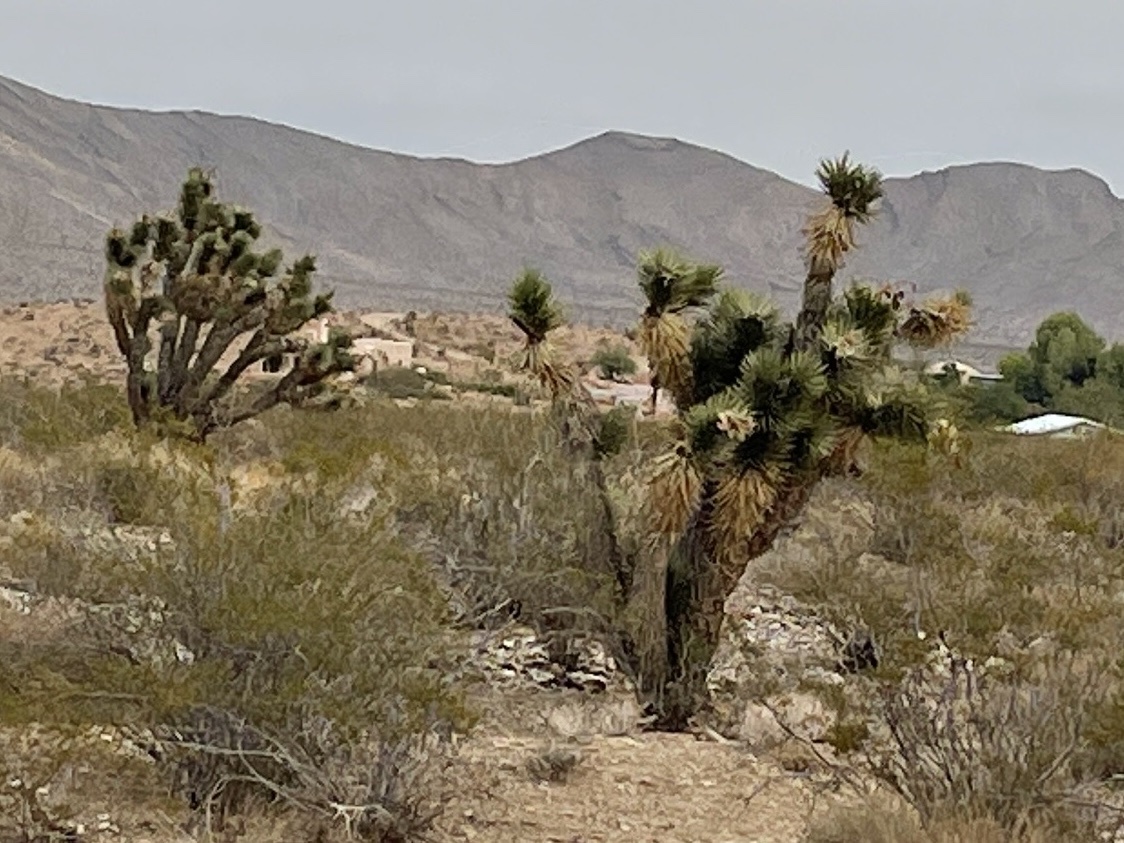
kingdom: Plantae
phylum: Tracheophyta
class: Liliopsida
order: Asparagales
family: Asparagaceae
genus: Yucca
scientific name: Yucca brevifolia
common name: Joshua tree
